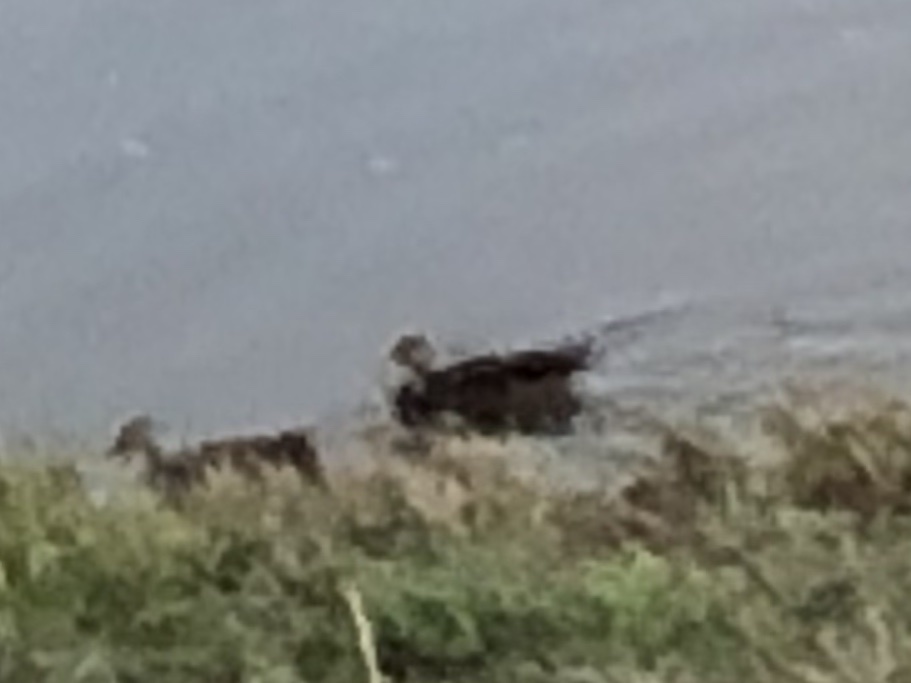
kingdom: Animalia
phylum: Chordata
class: Aves
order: Anseriformes
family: Anatidae
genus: Anas
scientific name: Anas fulvigula
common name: Mottled duck
